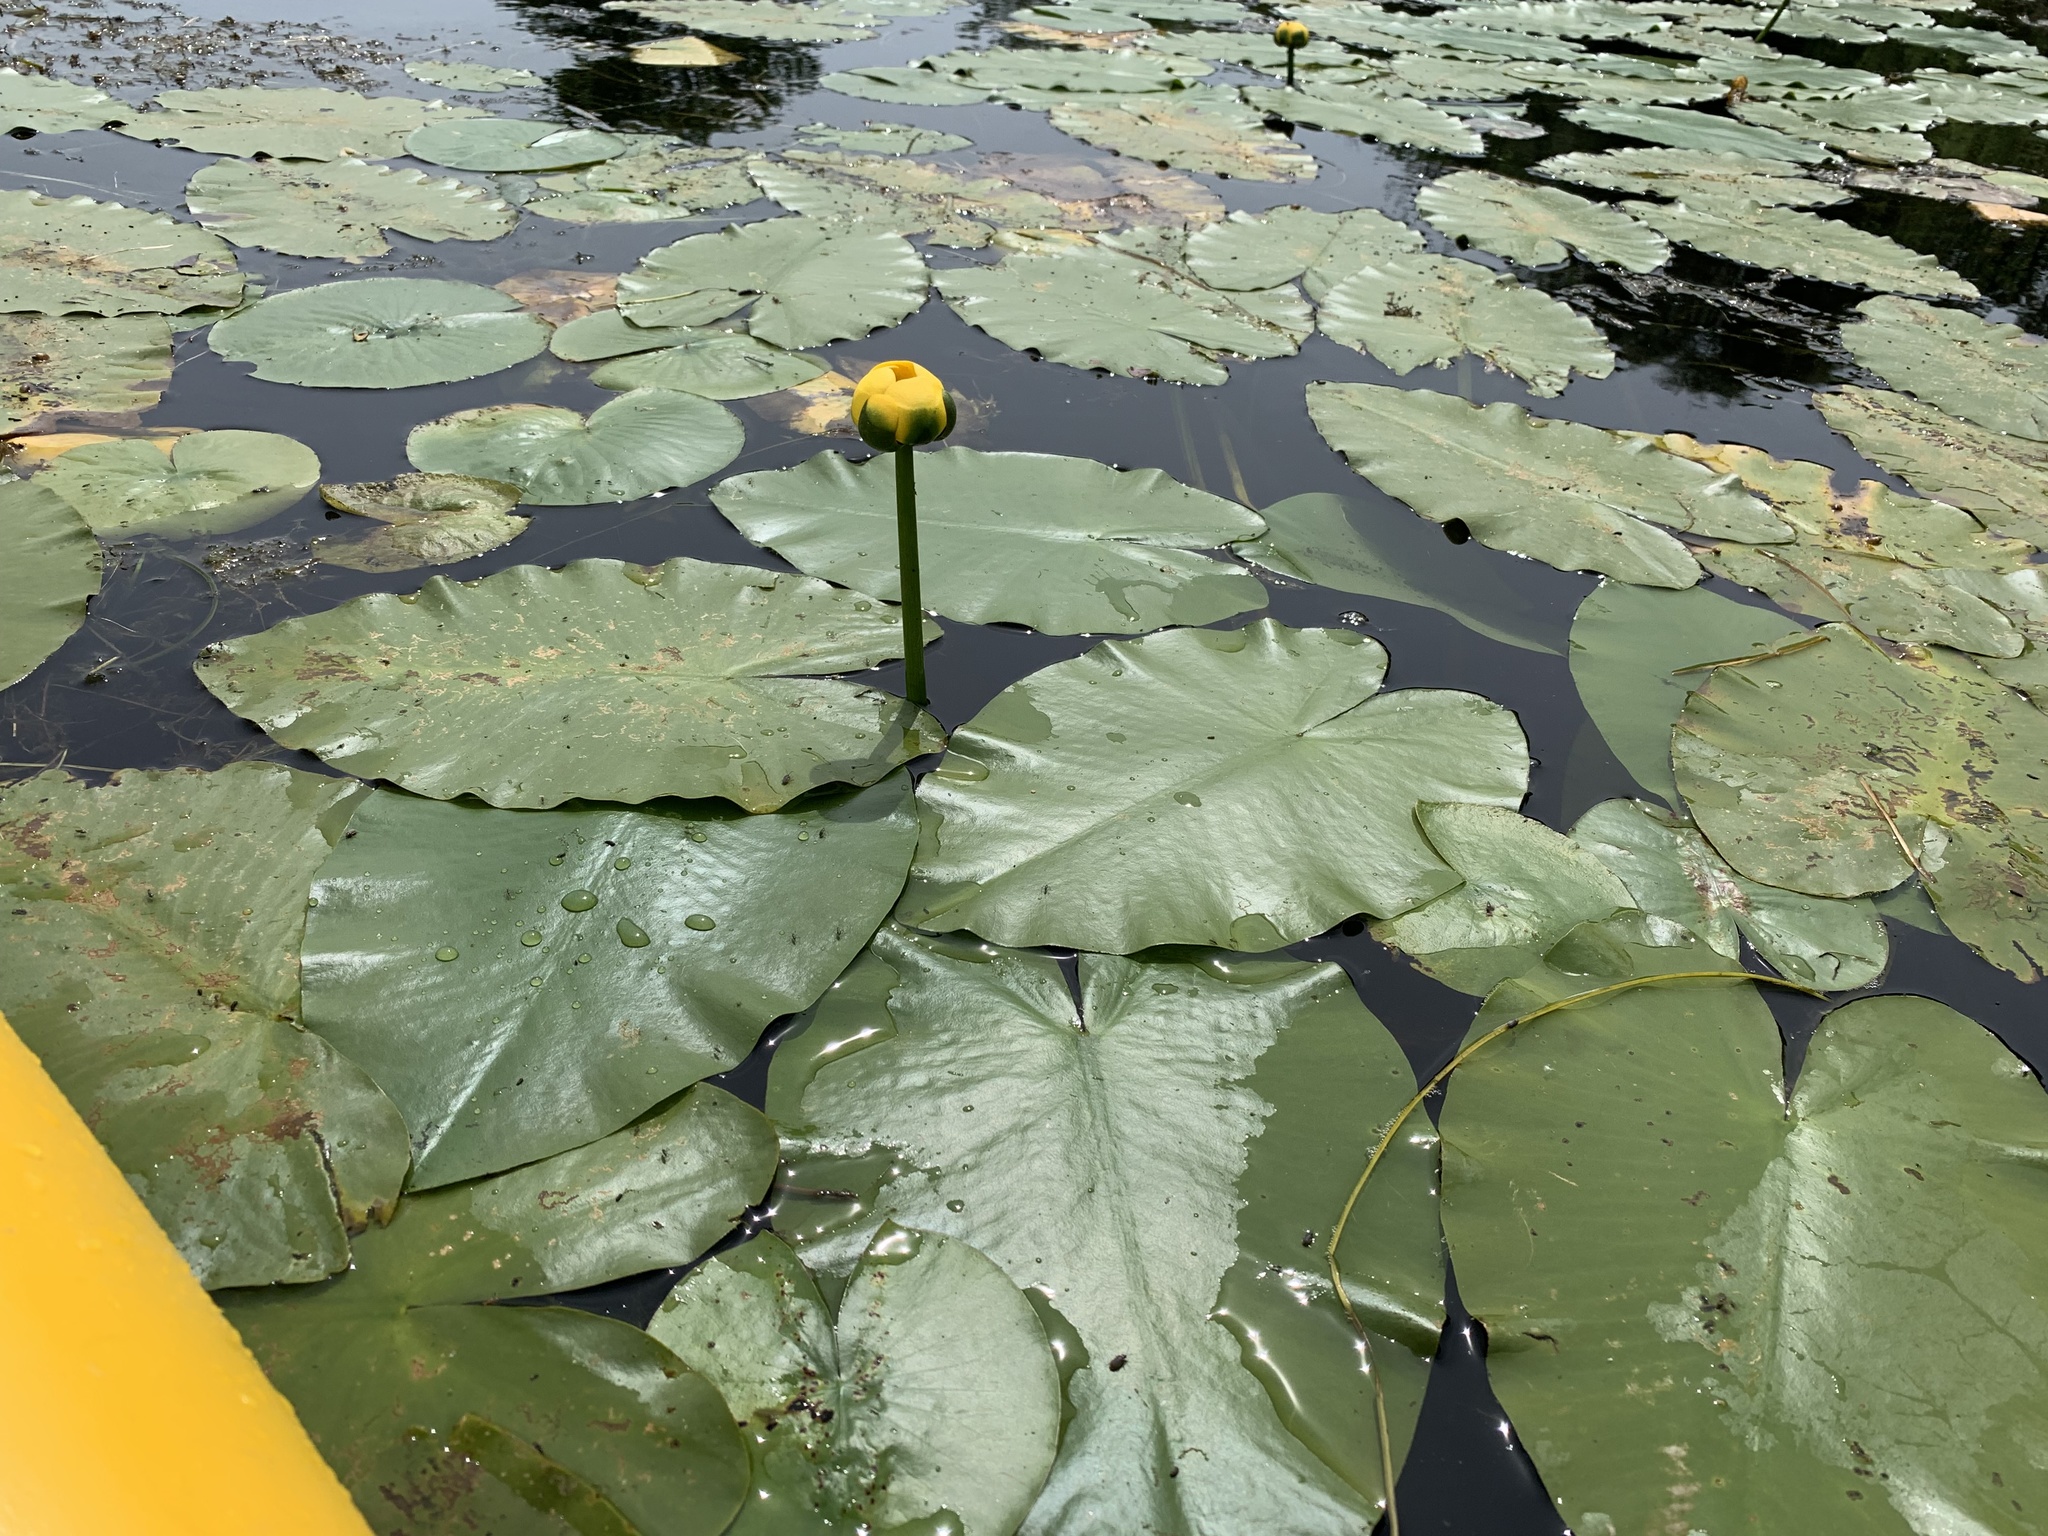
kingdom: Plantae
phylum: Tracheophyta
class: Magnoliopsida
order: Nymphaeales
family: Nymphaeaceae
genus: Nuphar
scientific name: Nuphar variegata
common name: Beaver-root
